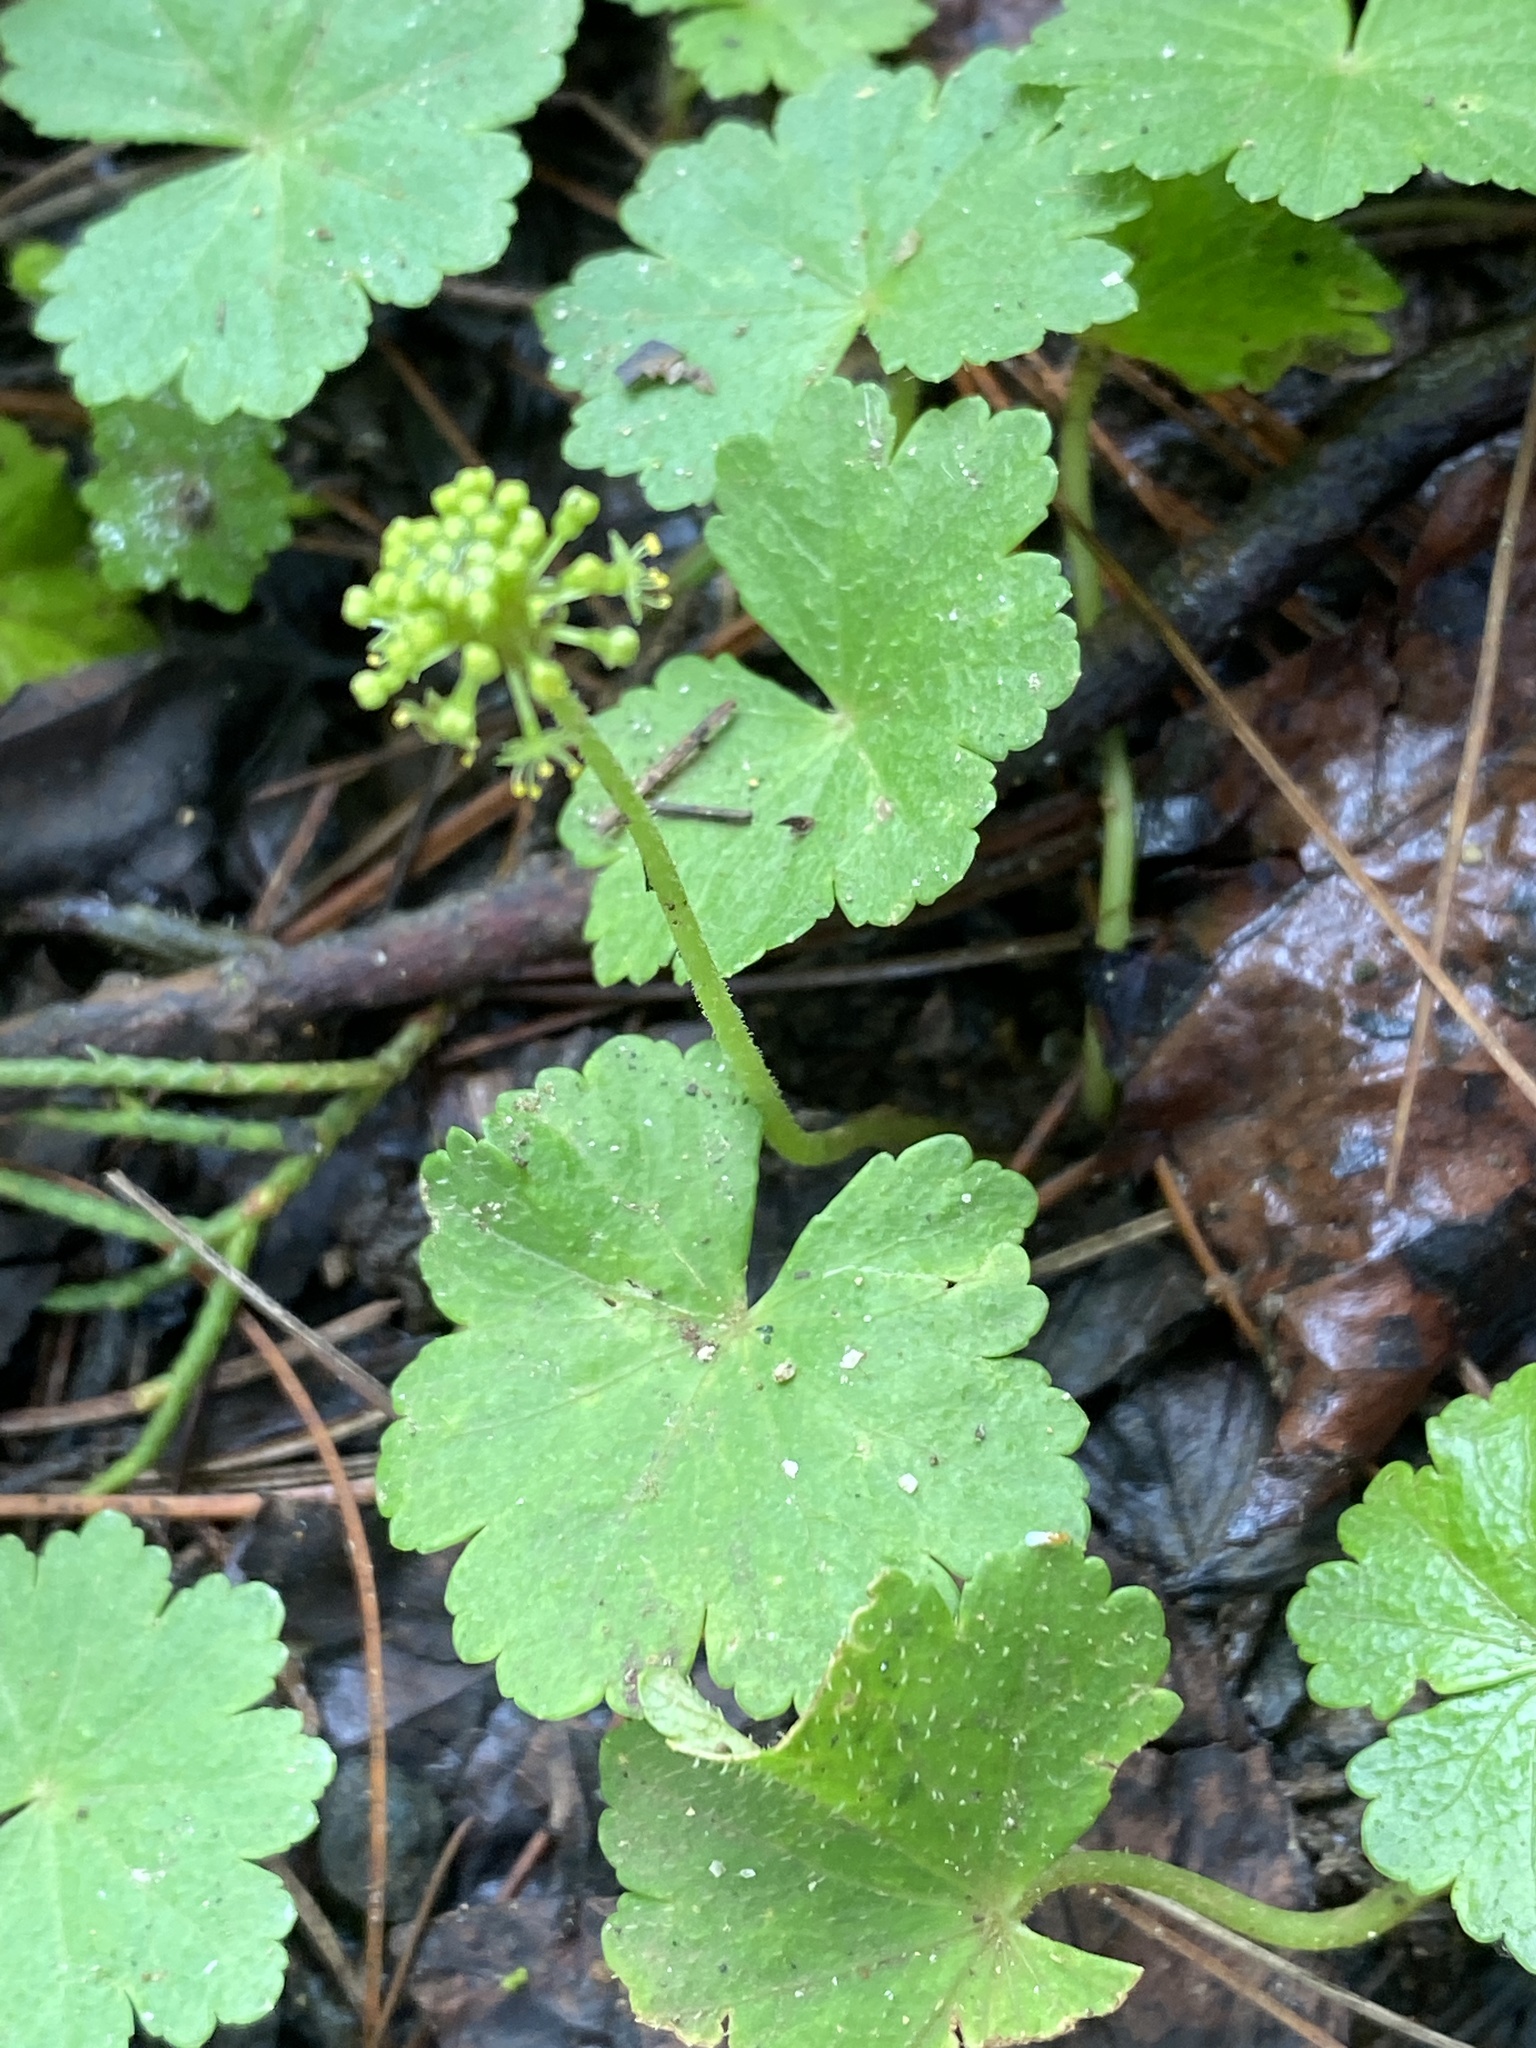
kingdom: Plantae
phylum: Tracheophyta
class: Magnoliopsida
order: Apiales
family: Araliaceae
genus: Hydrocotyle
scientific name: Hydrocotyle mexicana
